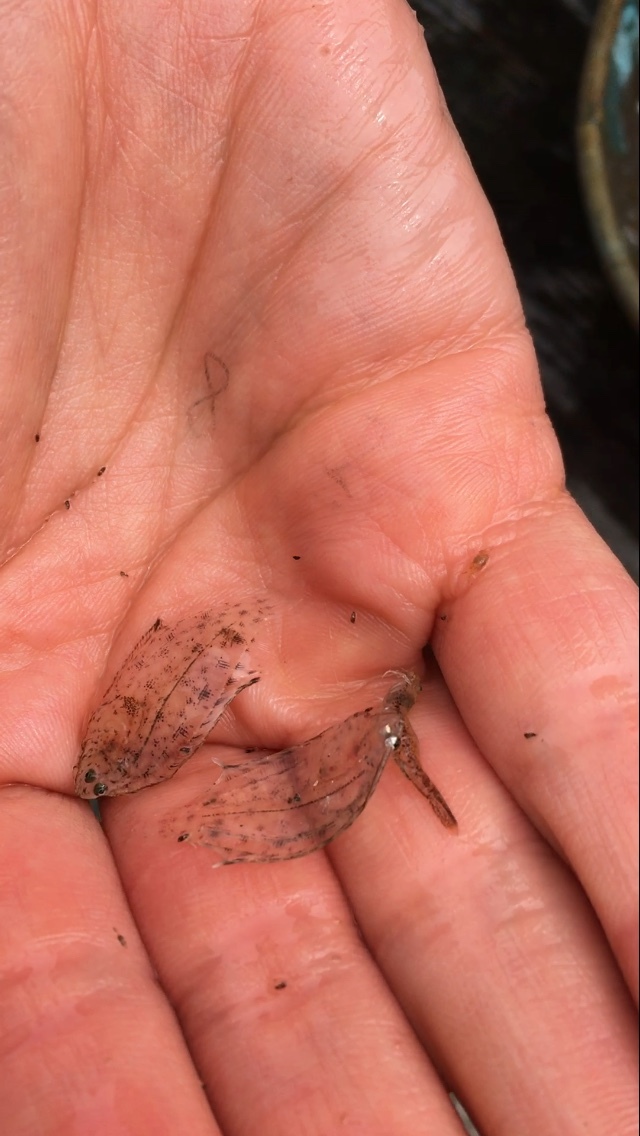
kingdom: Animalia
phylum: Chordata
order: Pleuronectiformes
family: Paralichthyidae
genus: Citharichthys
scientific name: Citharichthys sordidus
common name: Pacific sanddab
